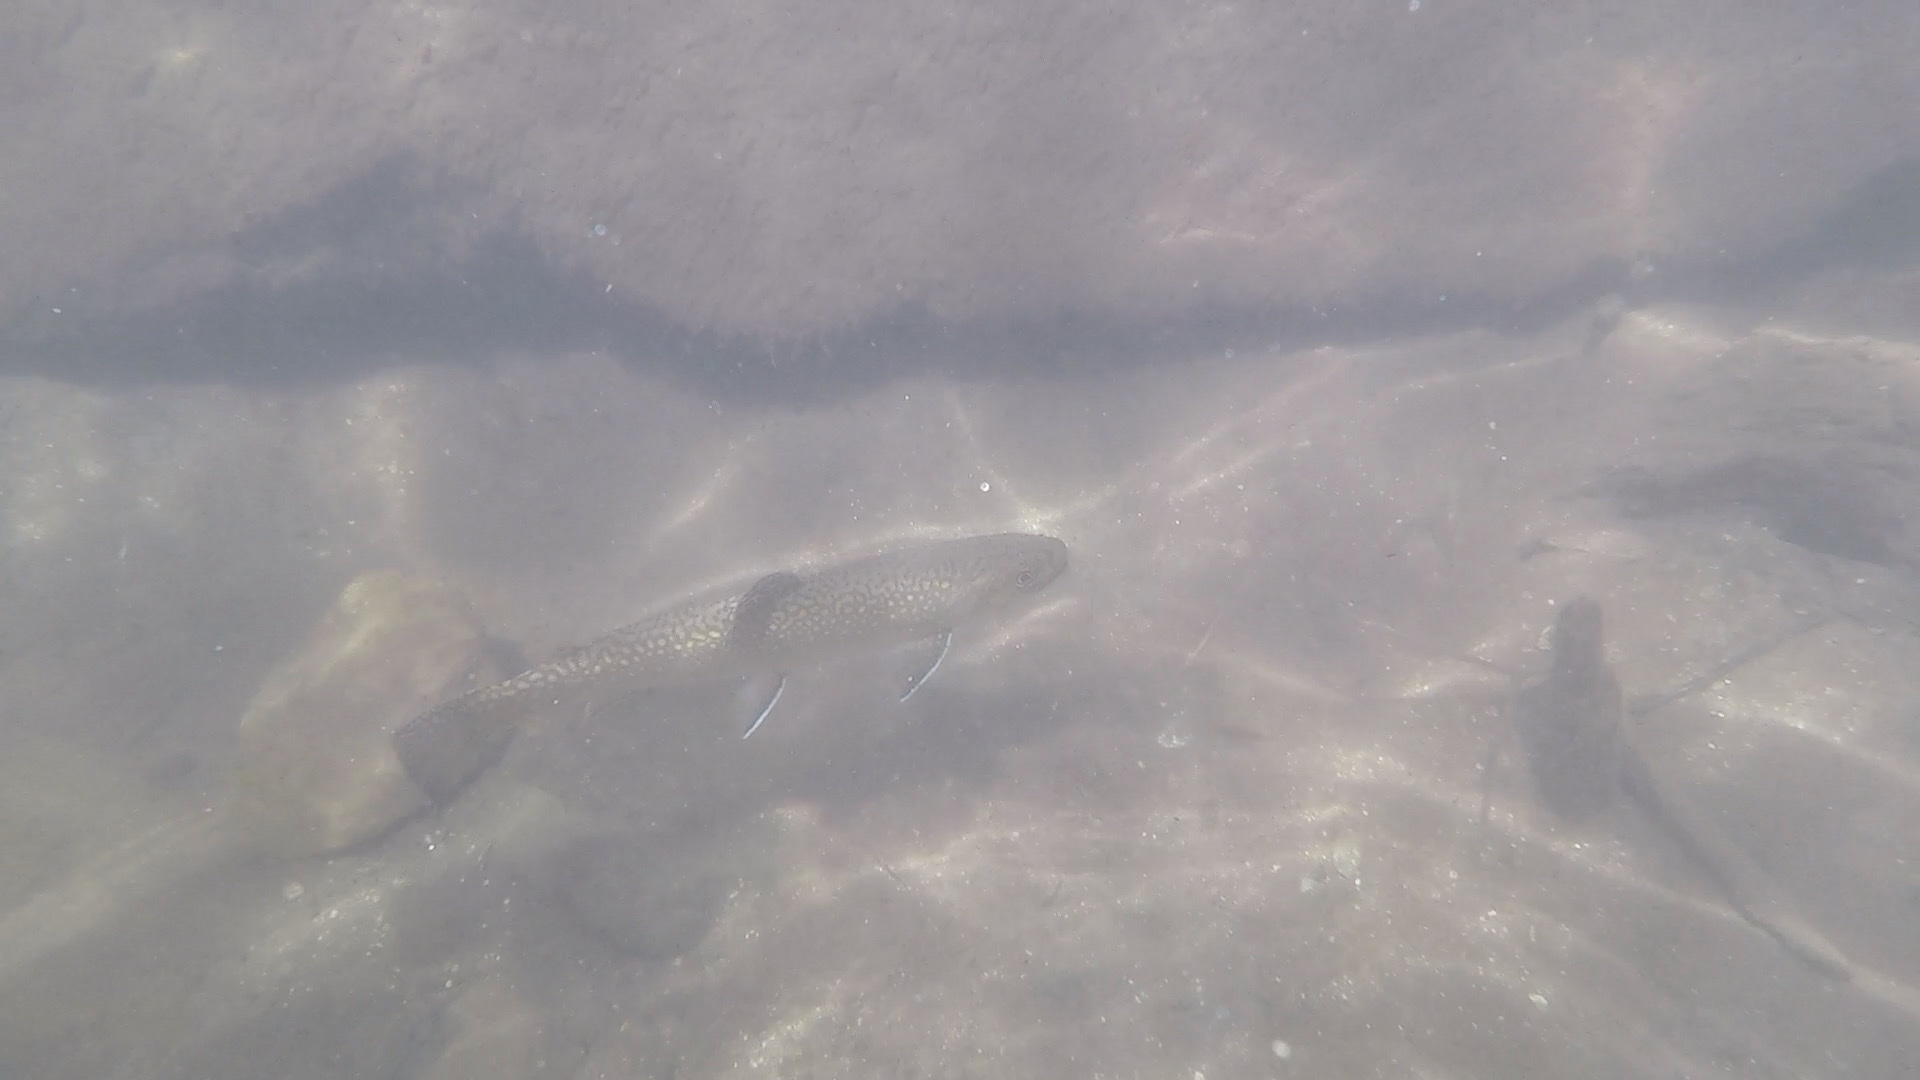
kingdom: Animalia
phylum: Chordata
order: Salmoniformes
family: Salmonidae
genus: Salvelinus
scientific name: Salvelinus fontinalis
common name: Brook trout
